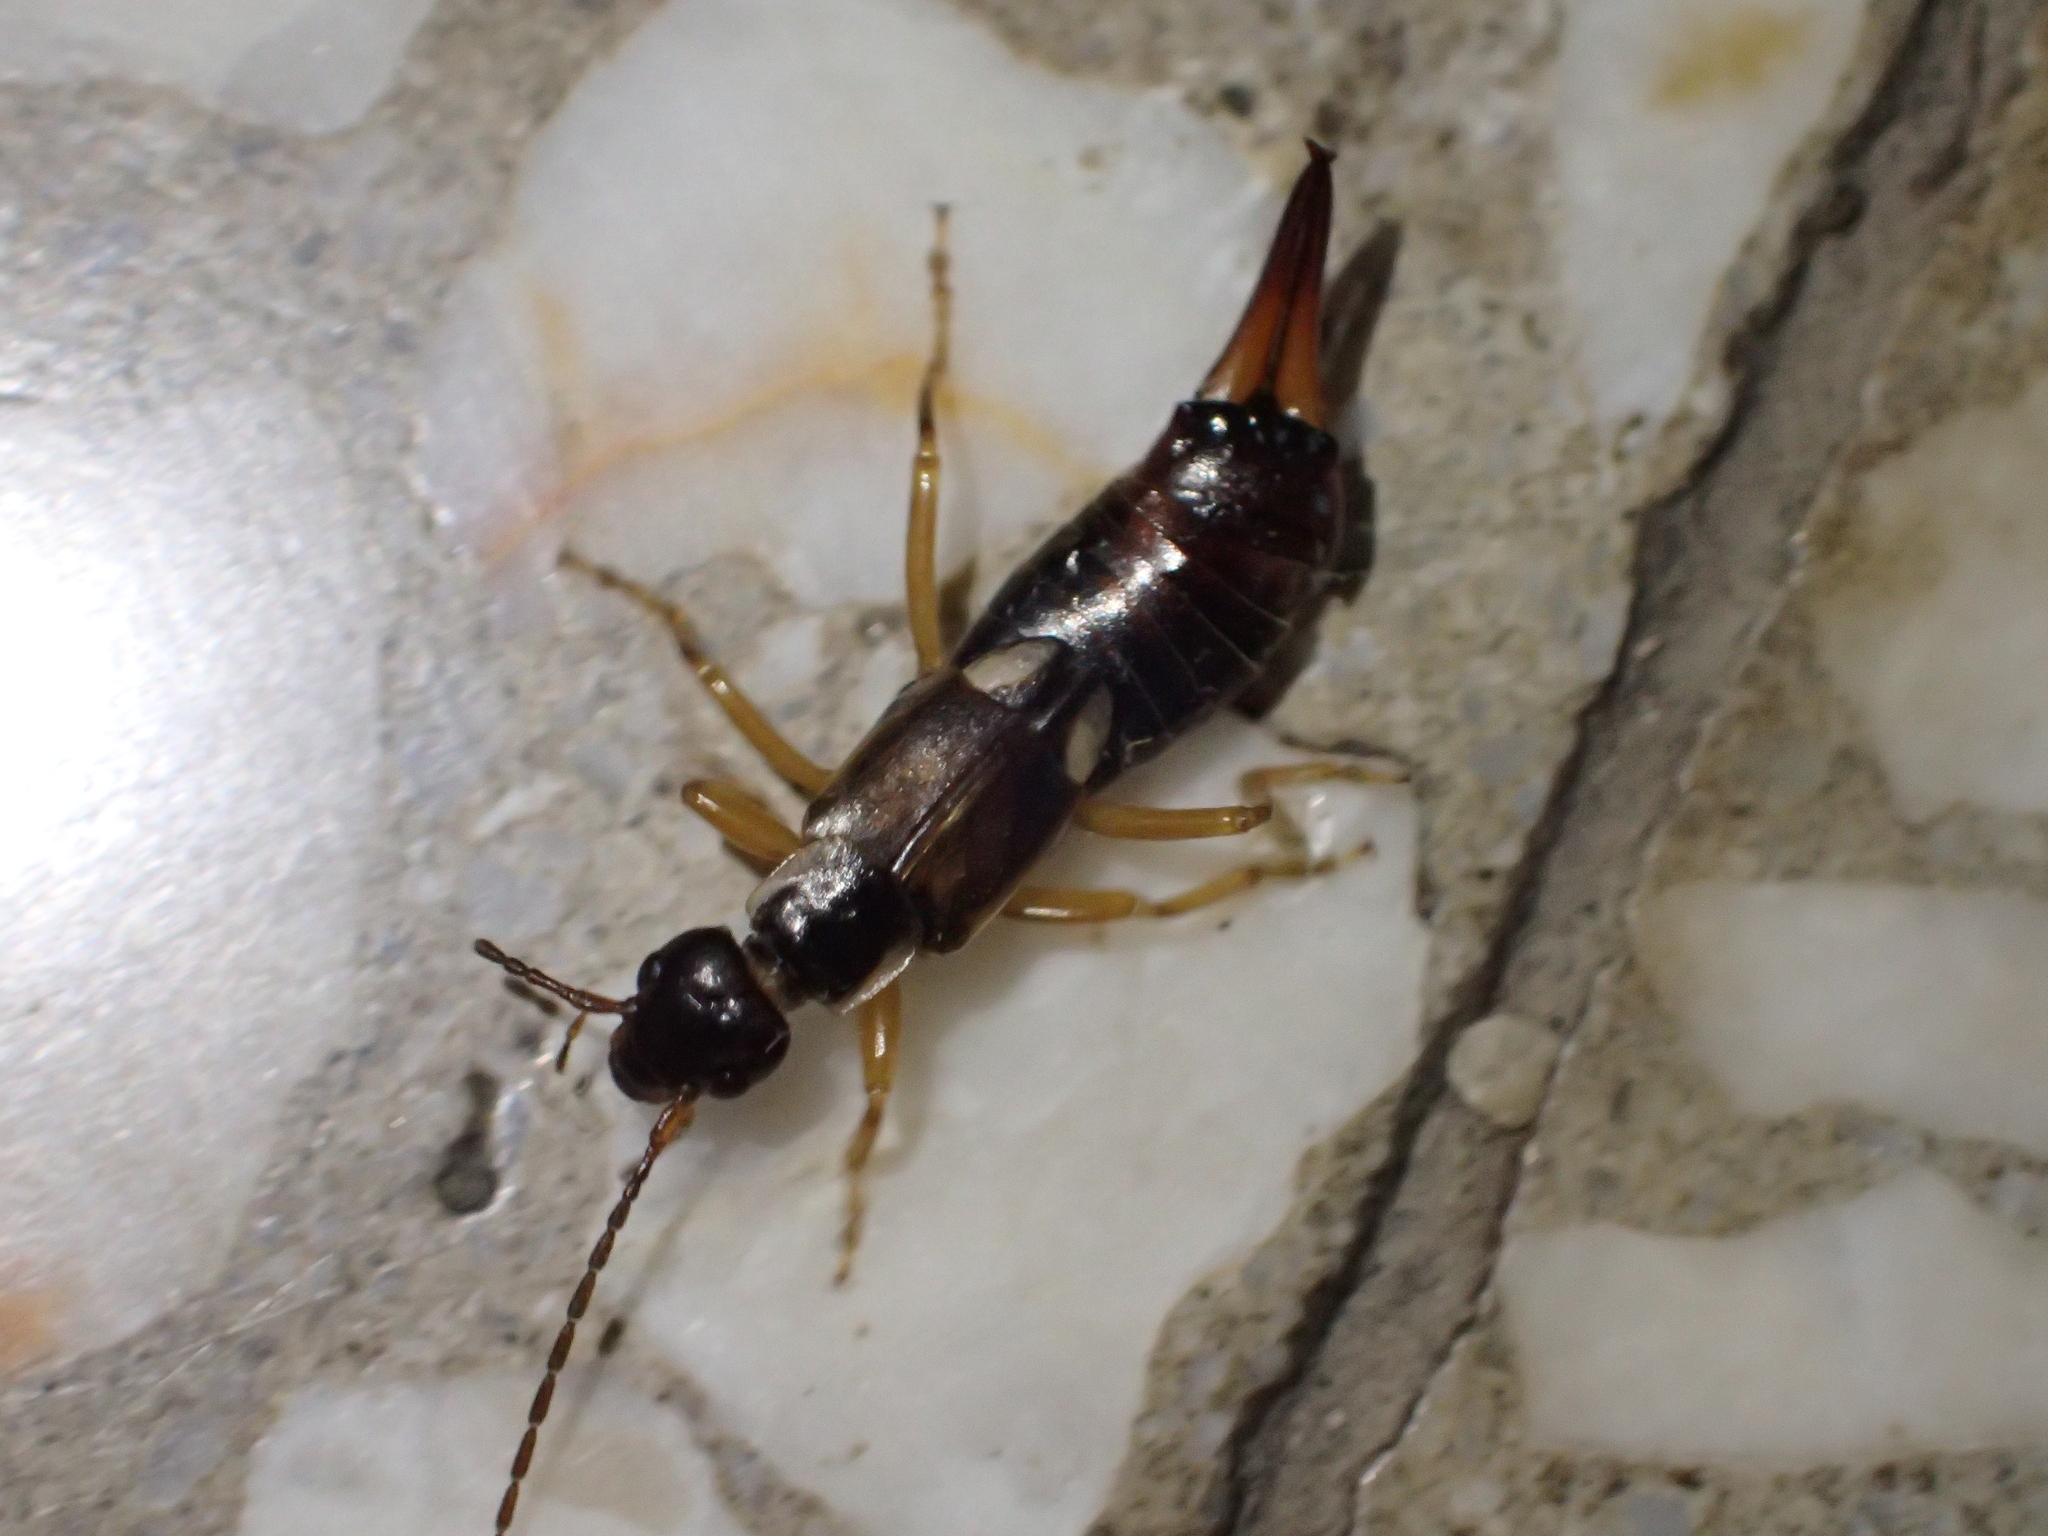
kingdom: Animalia
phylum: Arthropoda
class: Insecta
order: Dermaptera
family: Forficulidae
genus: Forficula
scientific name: Forficula
